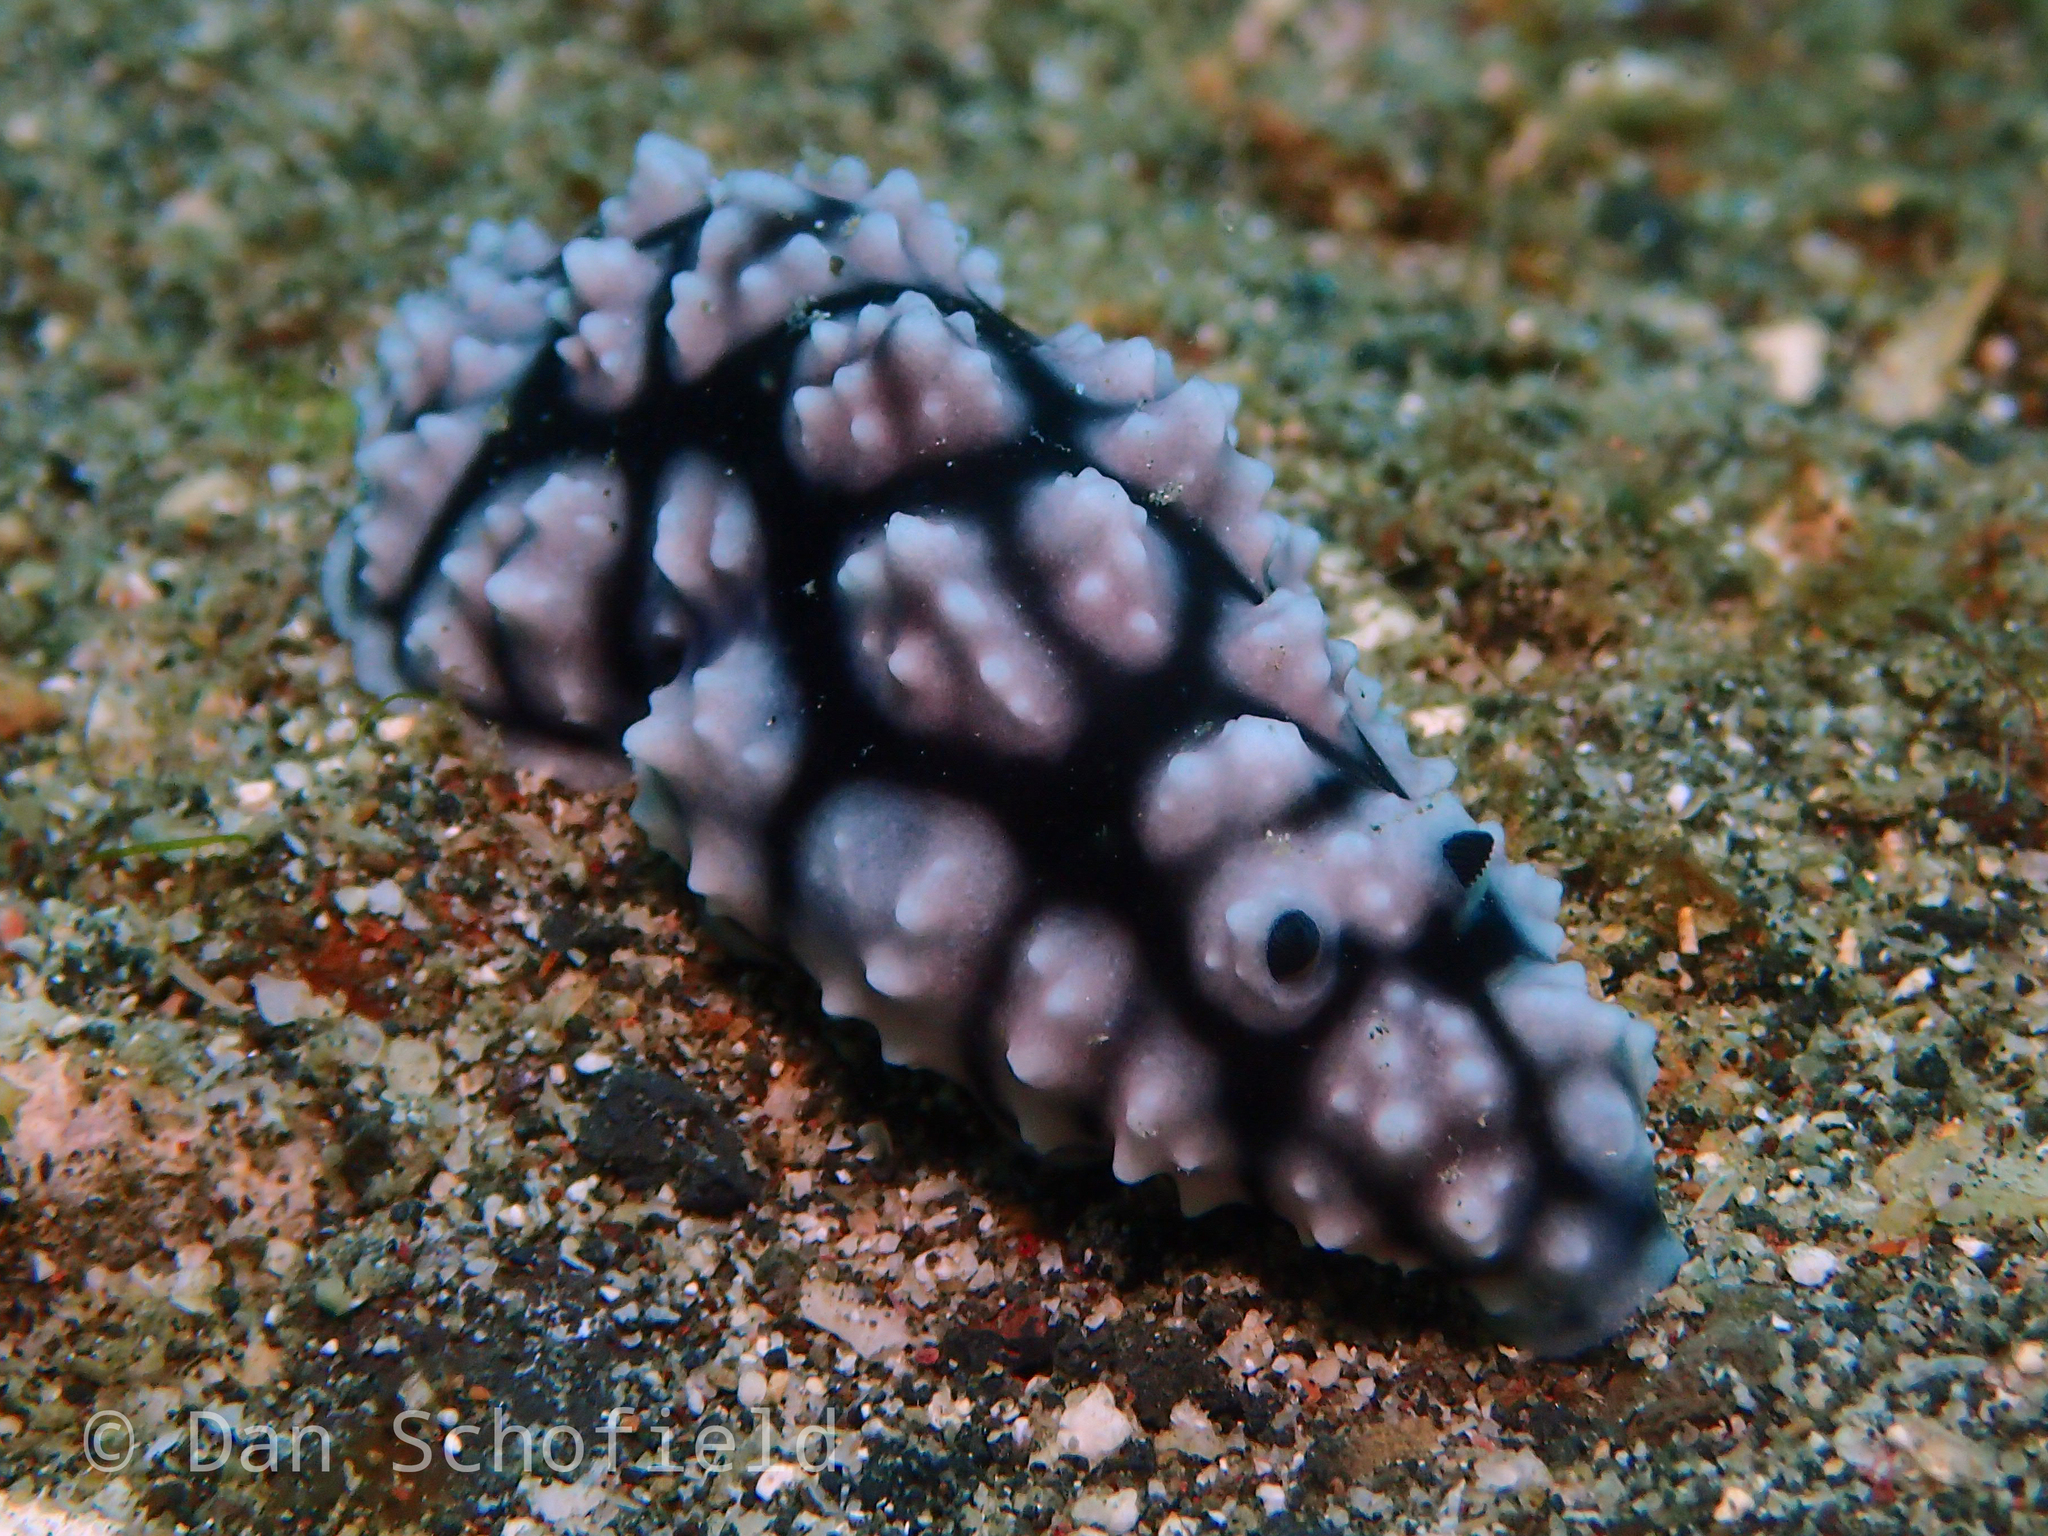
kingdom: Animalia
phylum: Mollusca
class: Gastropoda
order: Nudibranchia
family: Phyllidiidae
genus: Phyllidiella
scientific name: Phyllidiella pustulosa
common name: Pustular phyllidia
